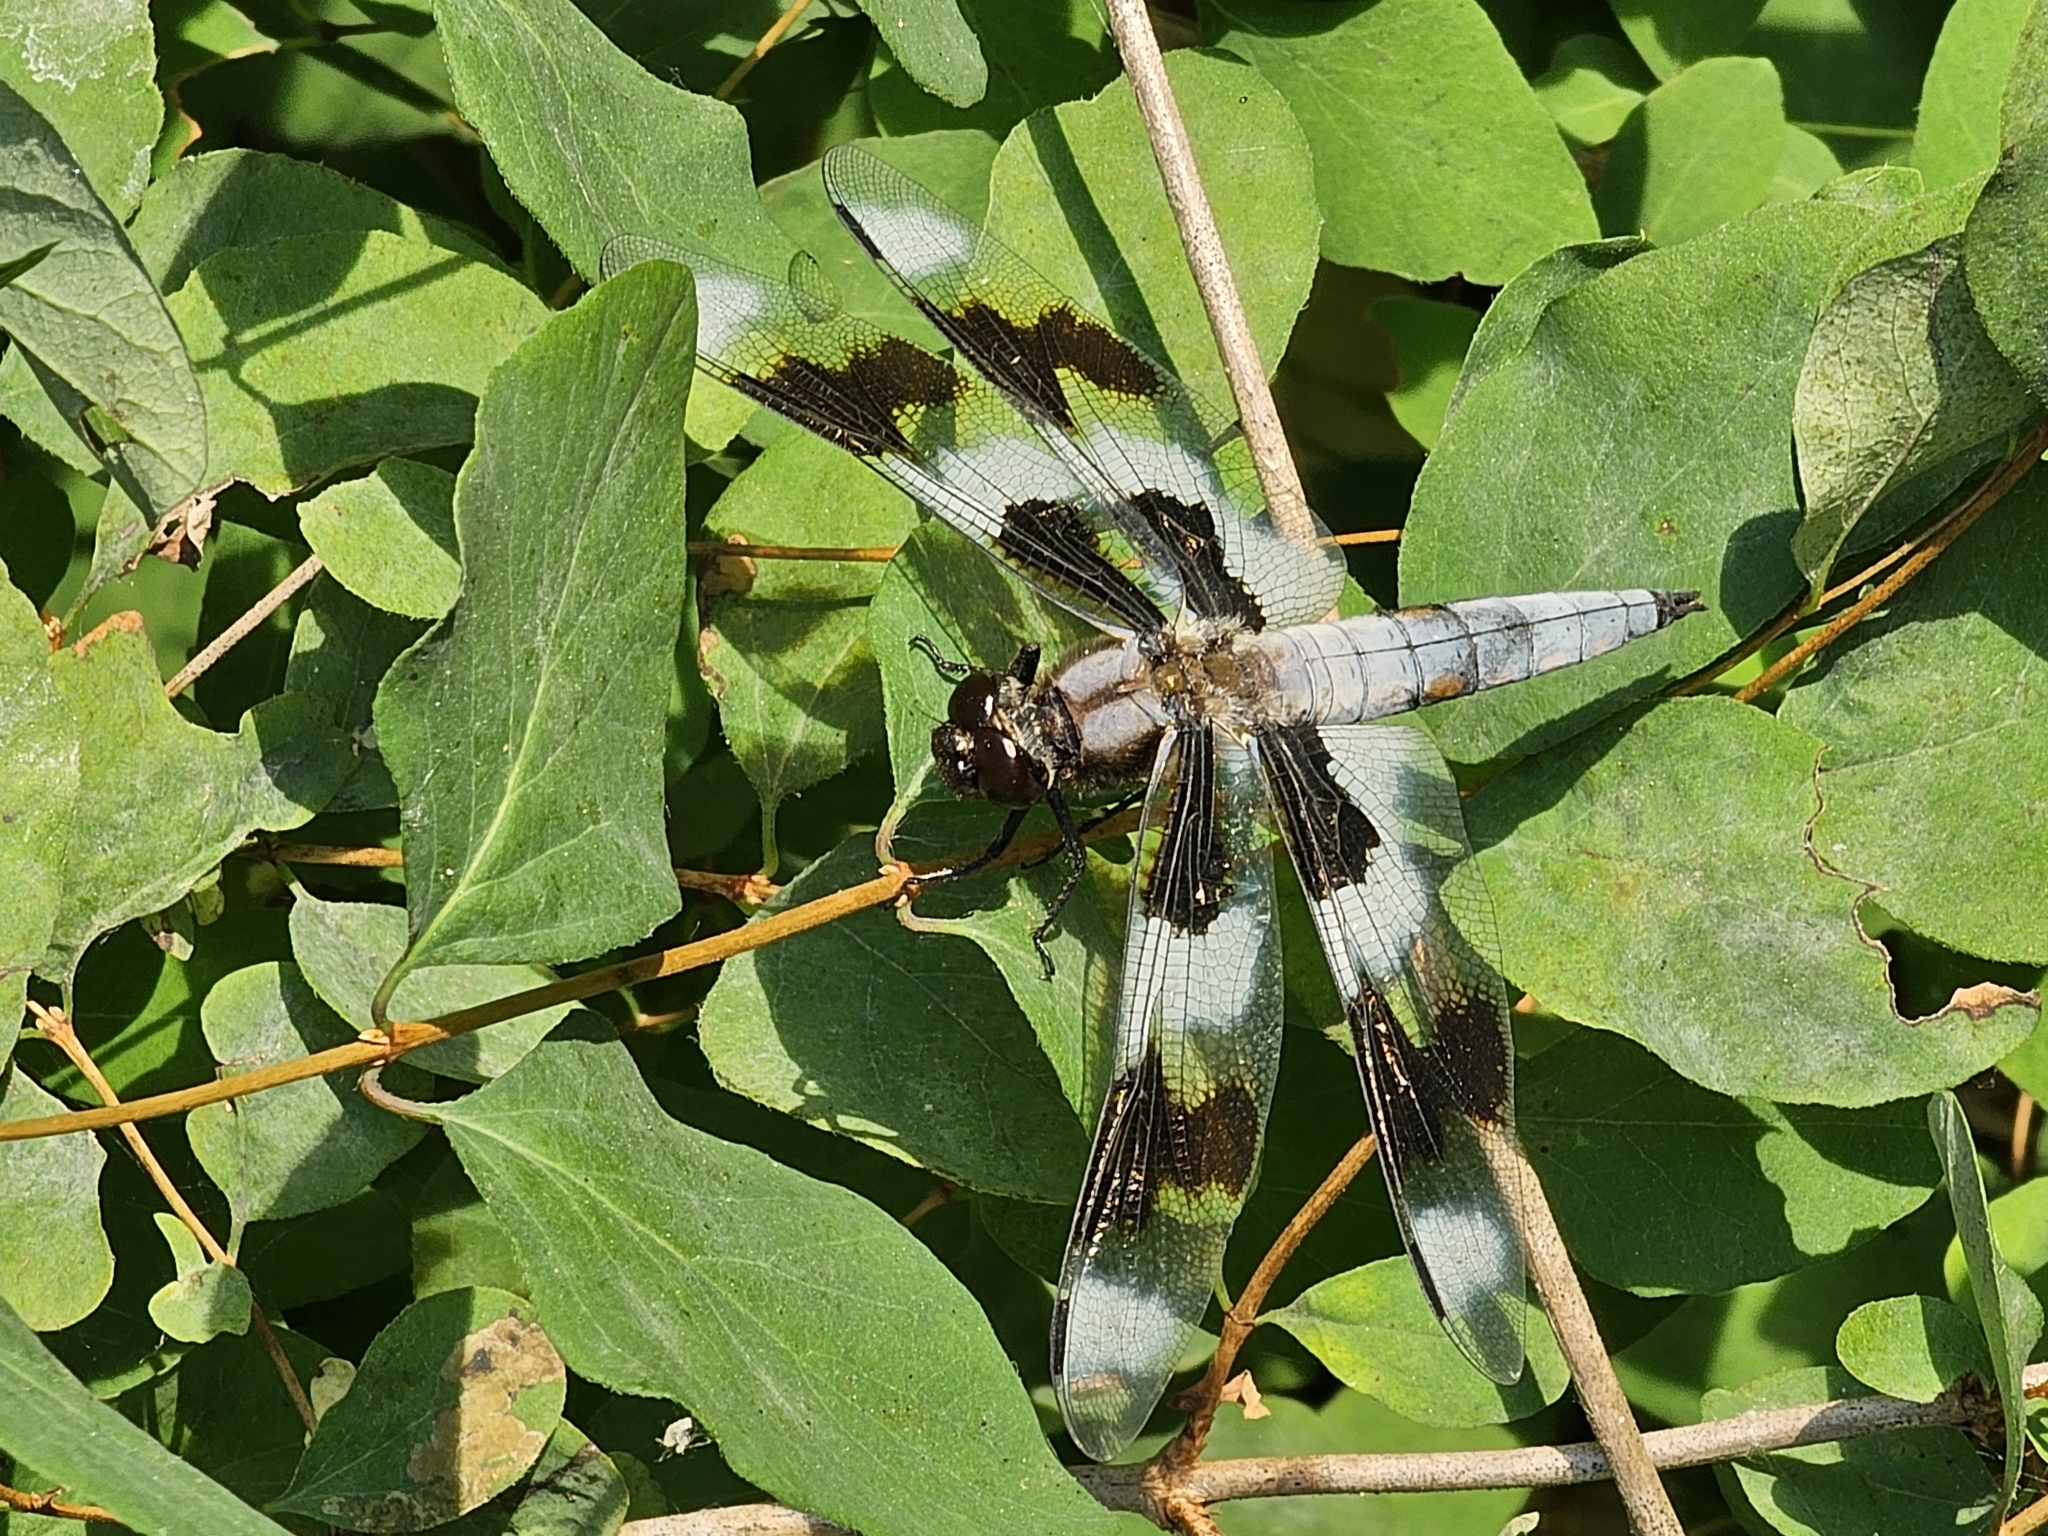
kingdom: Animalia
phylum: Arthropoda
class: Insecta
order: Odonata
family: Libellulidae
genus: Libellula
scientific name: Libellula forensis
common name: Eight-spotted skimmer
